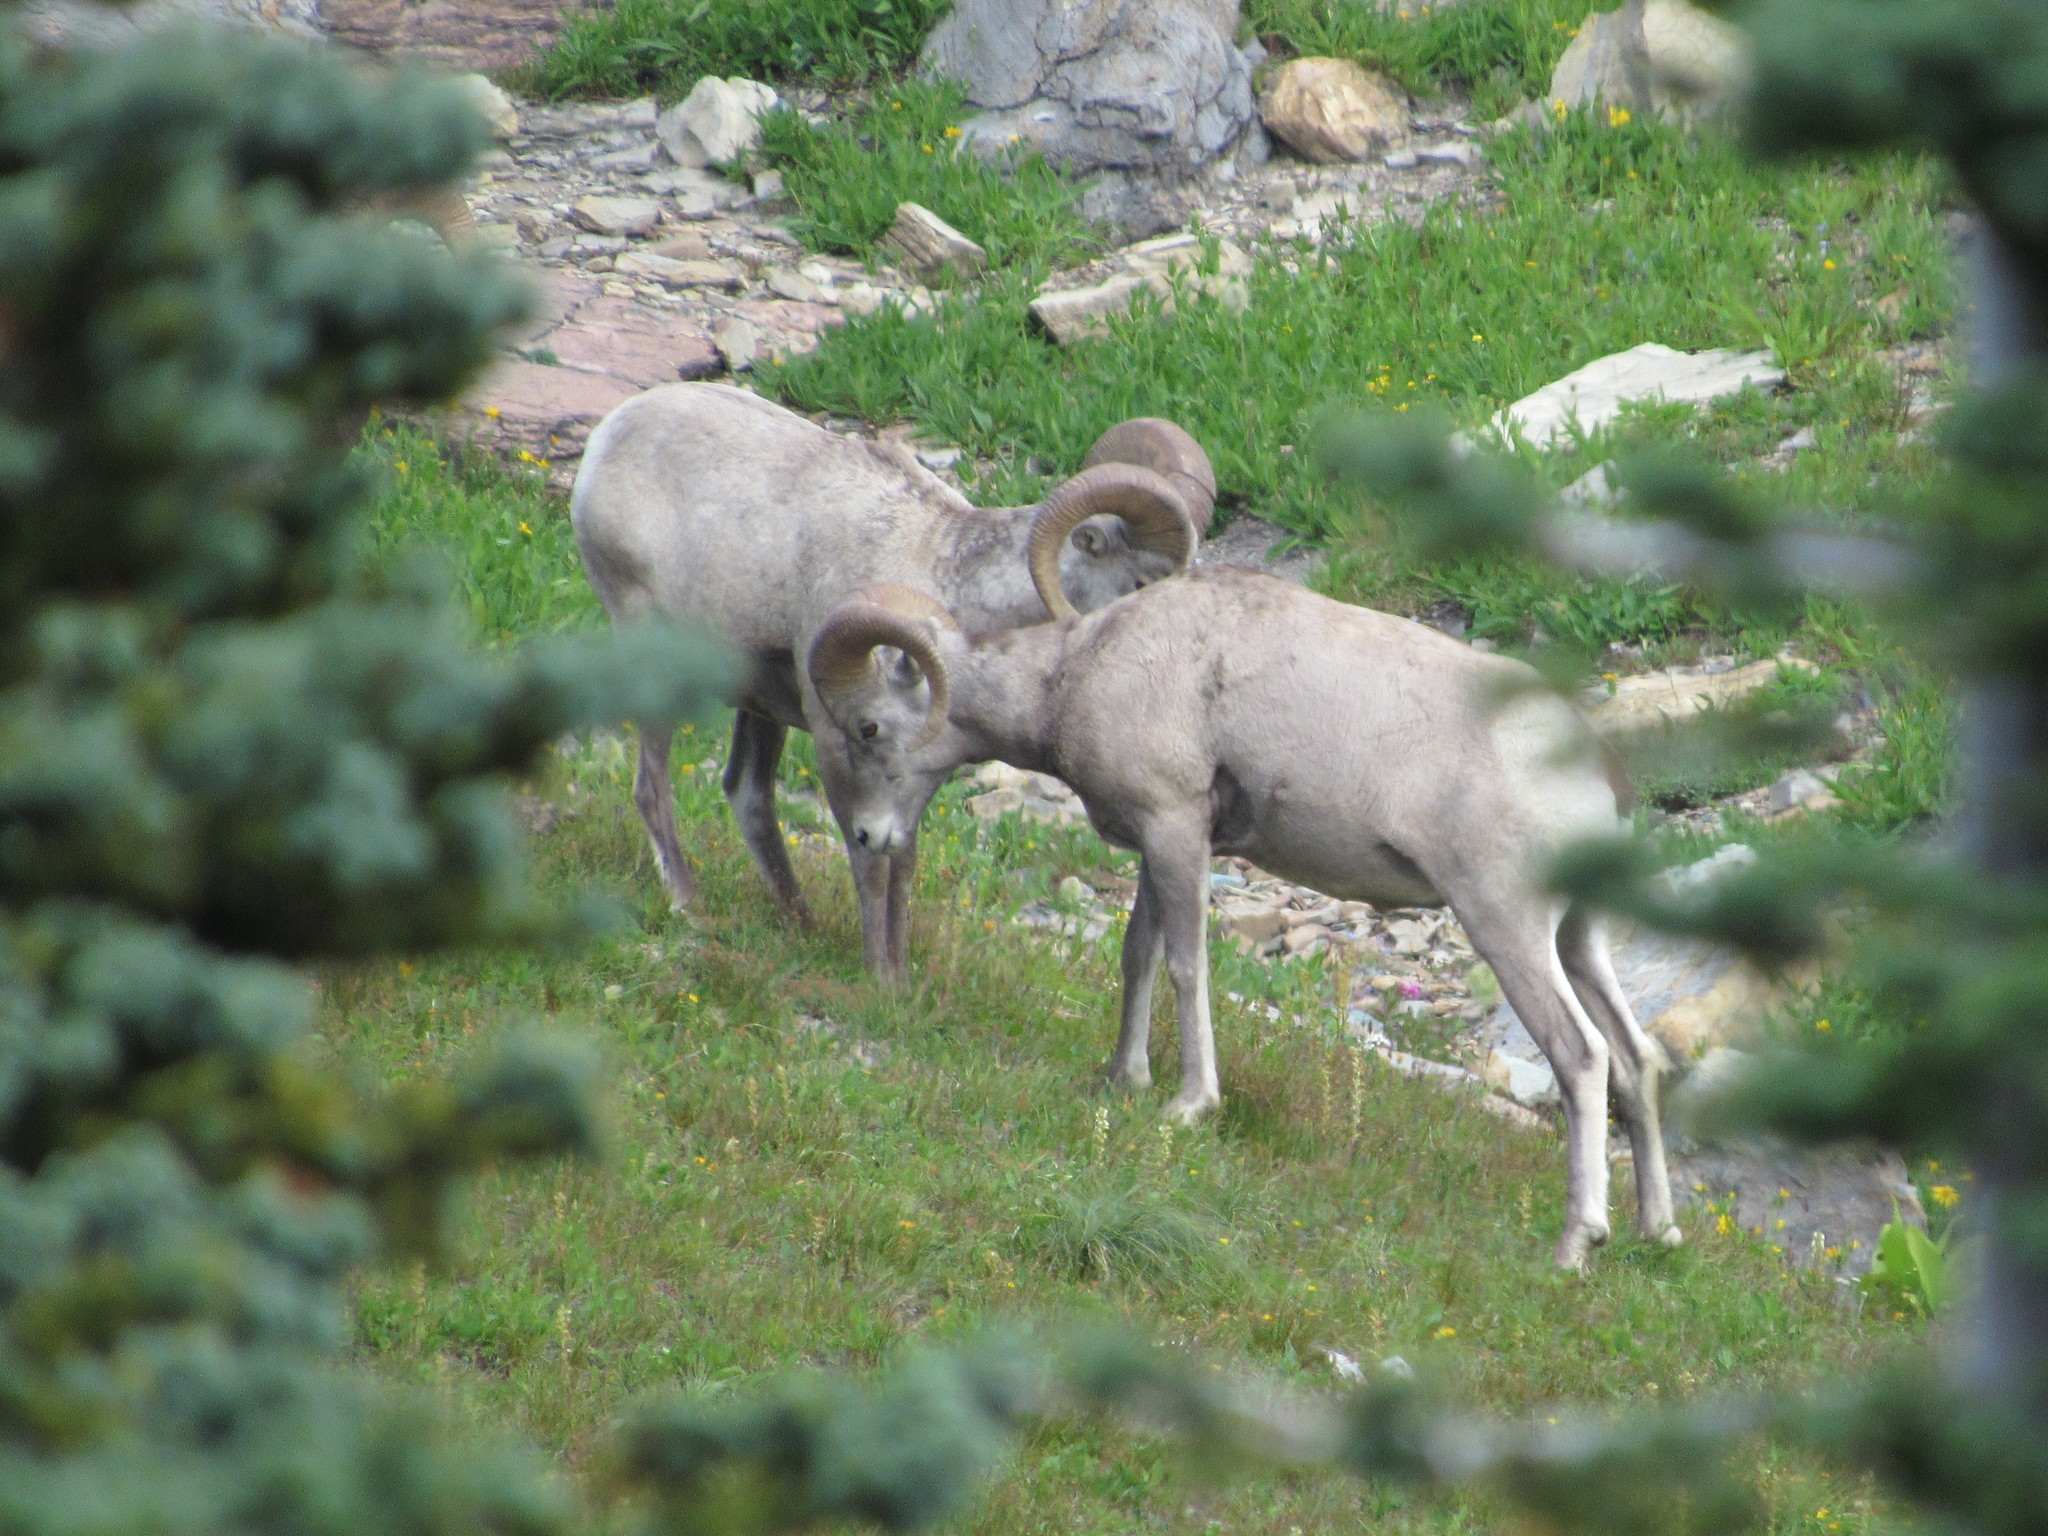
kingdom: Animalia
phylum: Chordata
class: Mammalia
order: Artiodactyla
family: Bovidae
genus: Ovis
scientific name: Ovis canadensis
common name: Bighorn sheep
